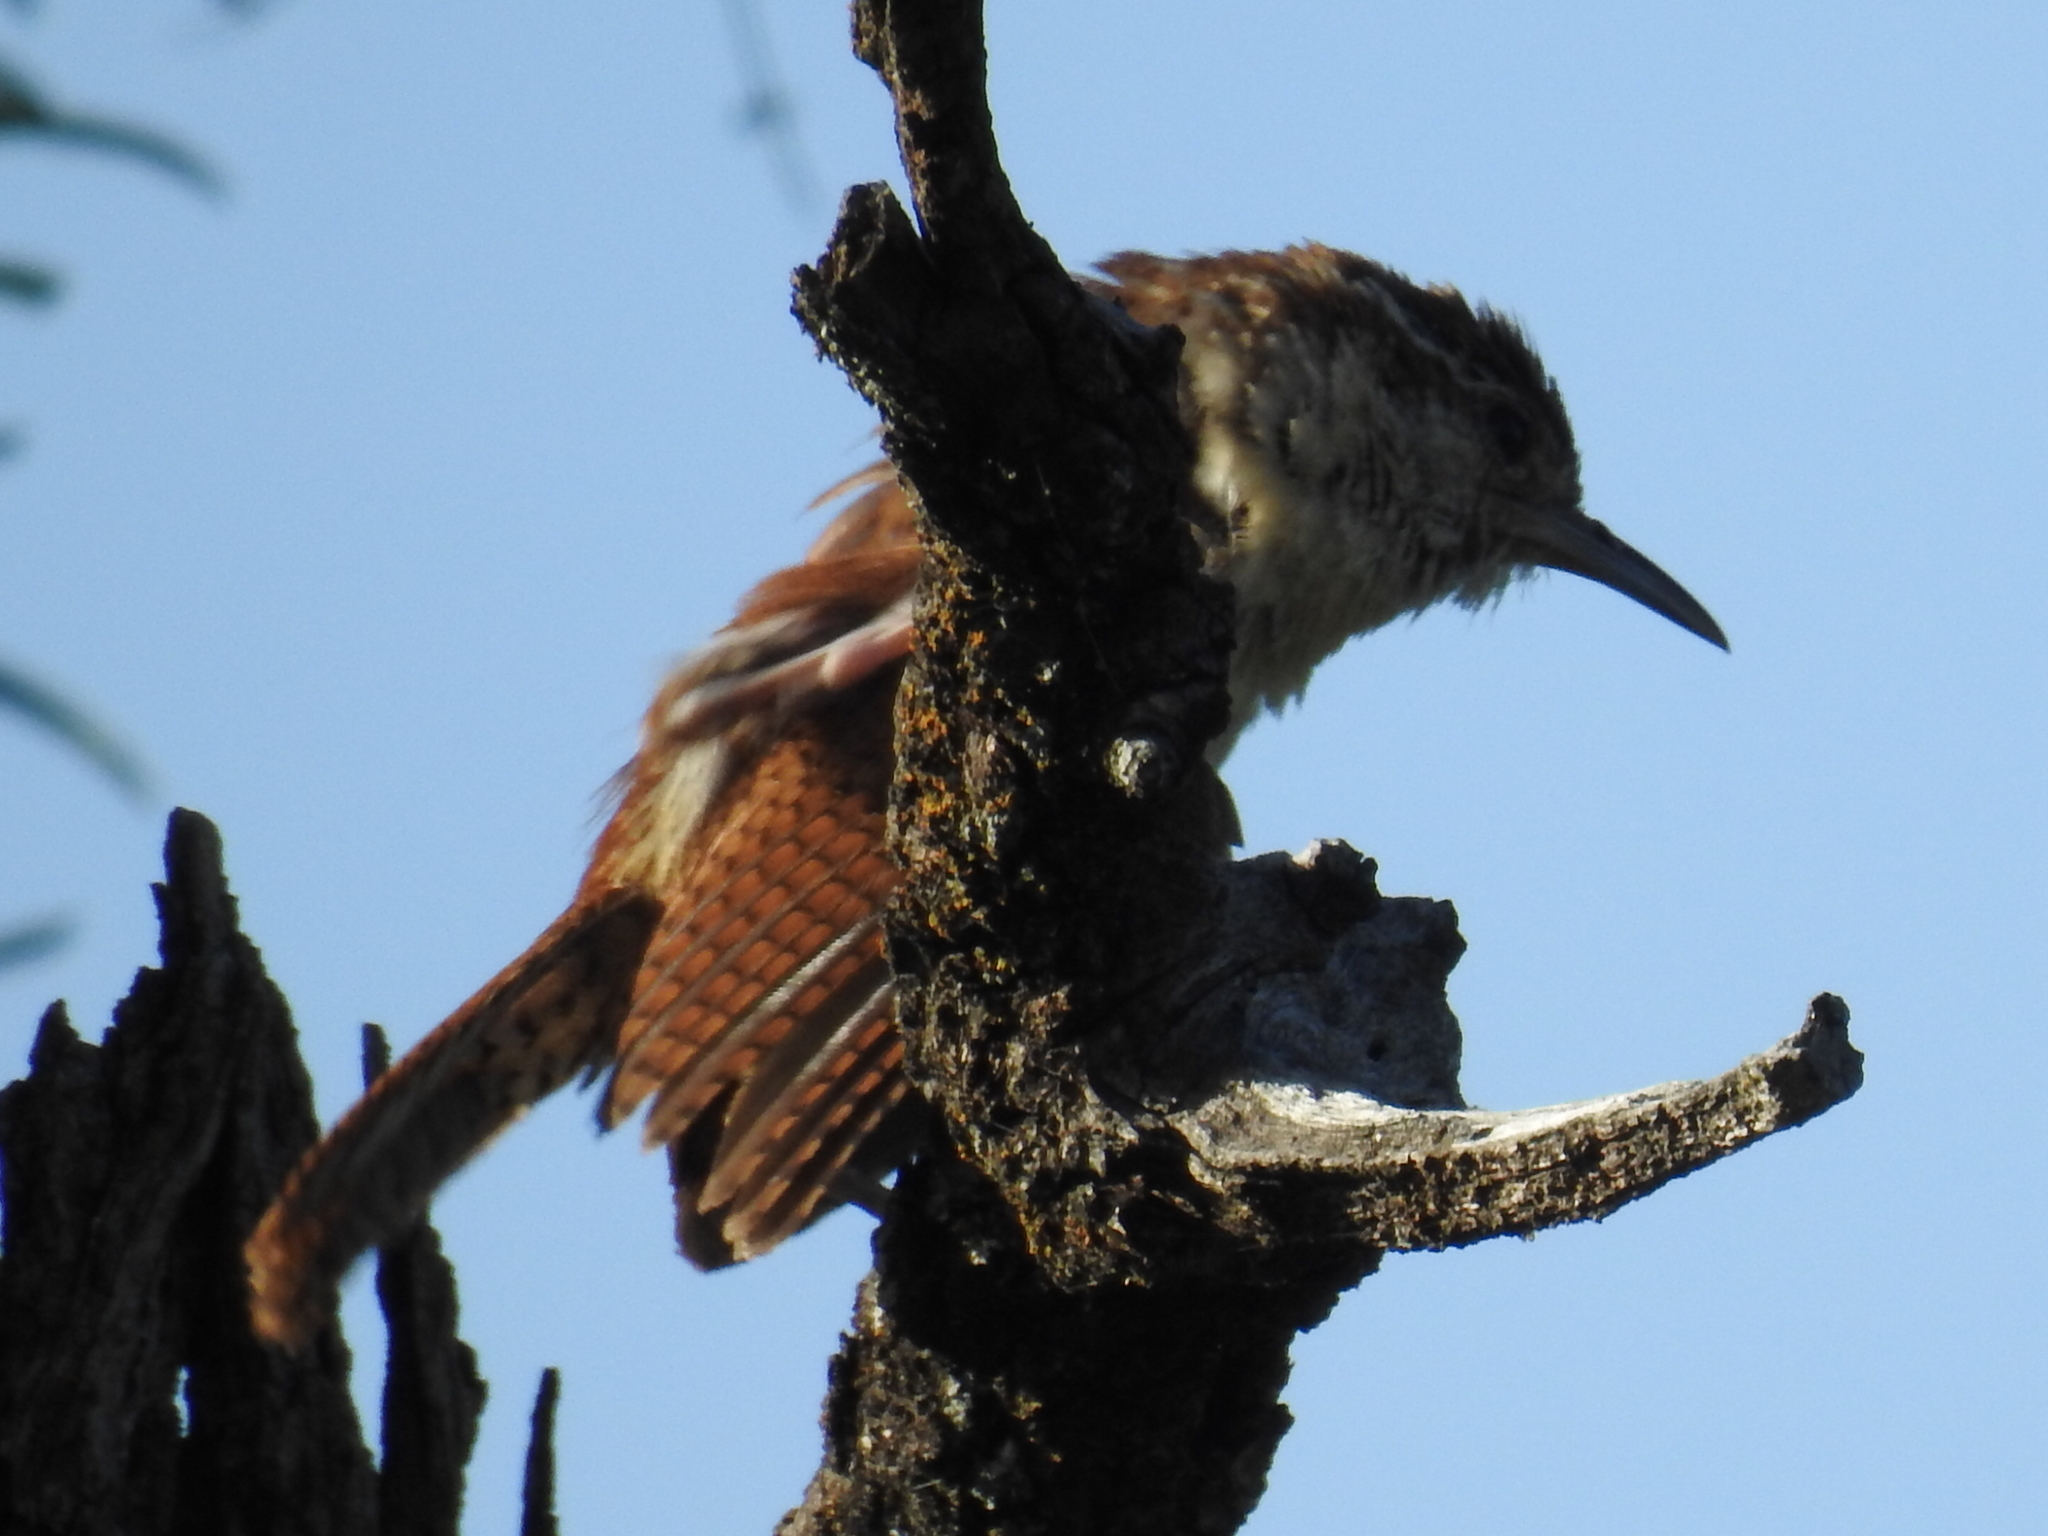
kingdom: Animalia
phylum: Chordata
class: Aves
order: Passeriformes
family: Troglodytidae
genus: Thryothorus
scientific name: Thryothorus ludovicianus
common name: Carolina wren
